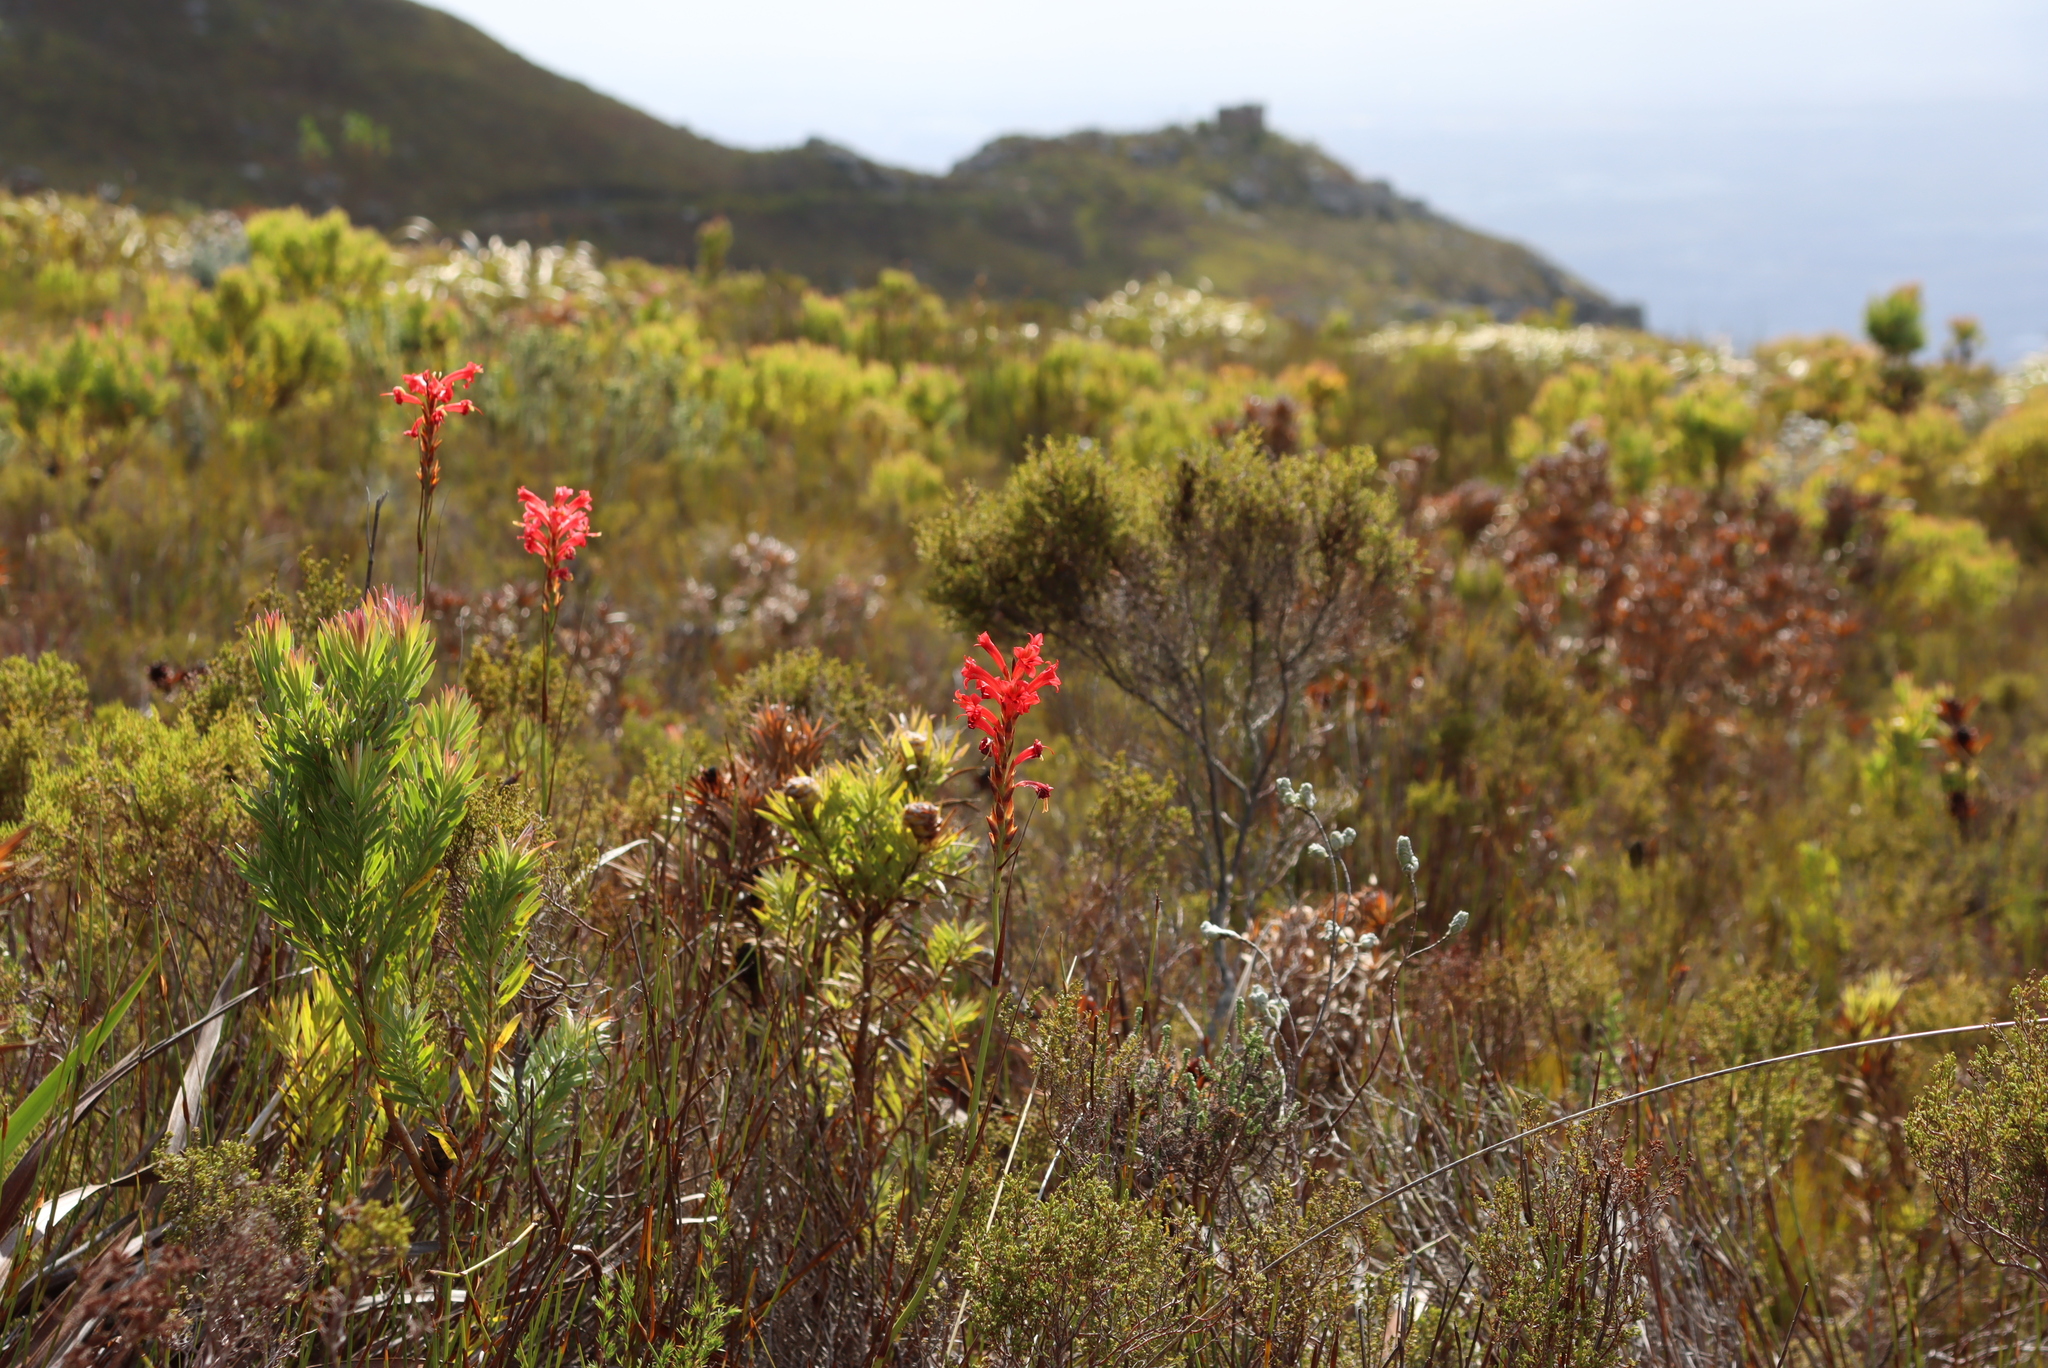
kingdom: Plantae
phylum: Tracheophyta
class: Liliopsida
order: Asparagales
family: Iridaceae
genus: Tritoniopsis
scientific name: Tritoniopsis triticea
